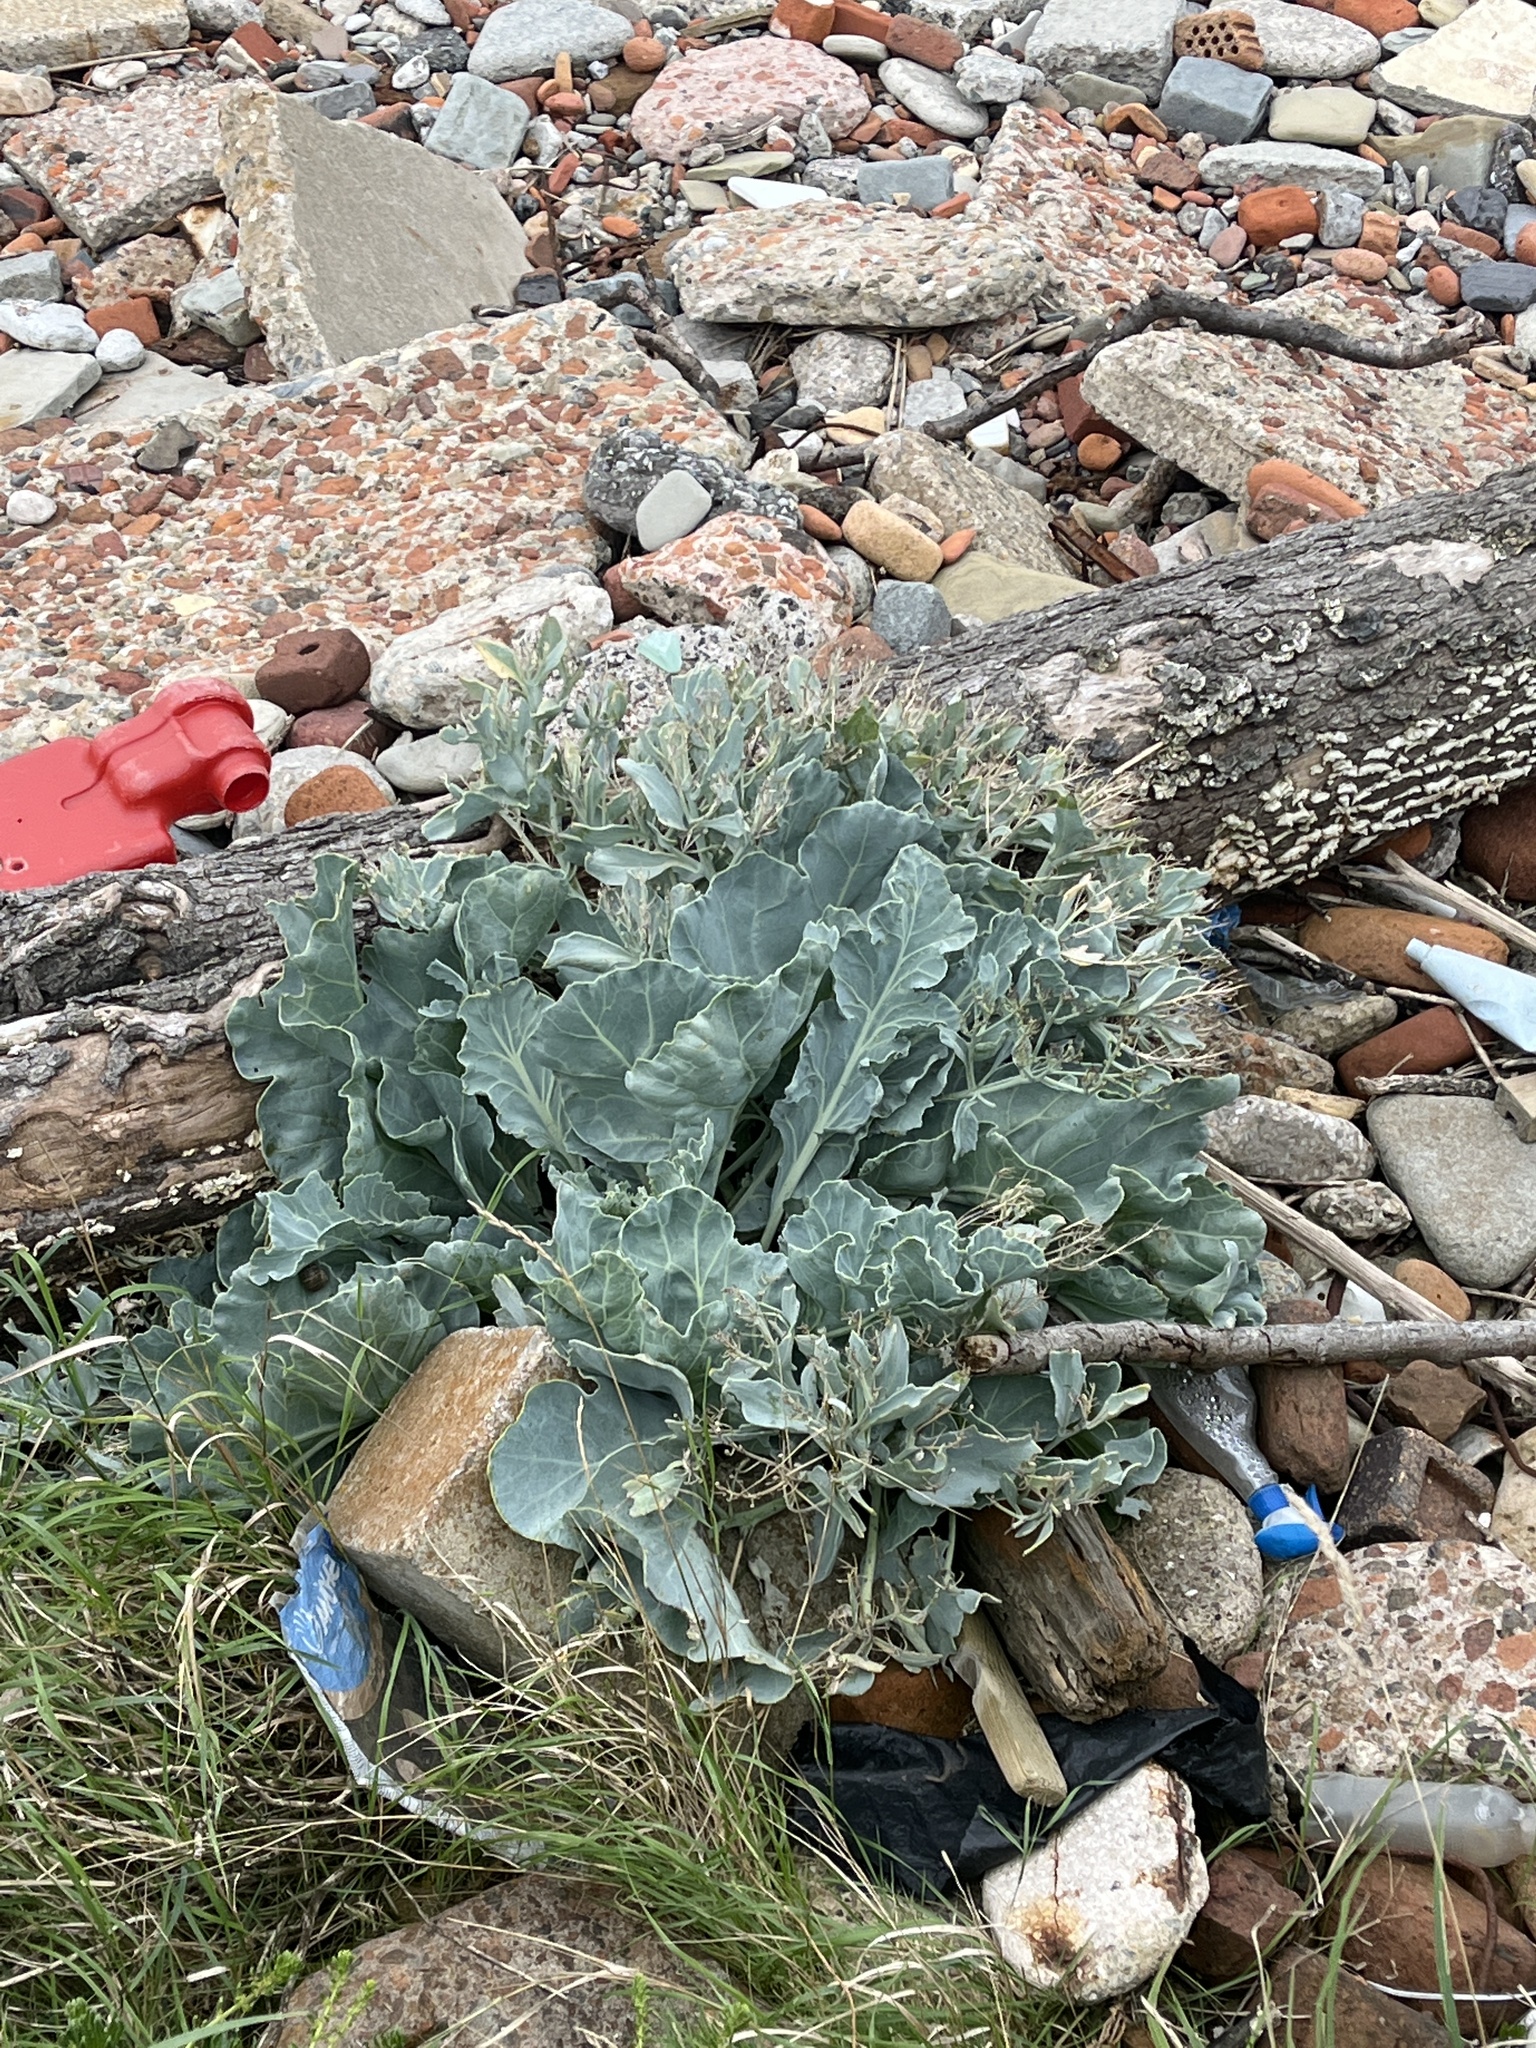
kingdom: Plantae
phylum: Tracheophyta
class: Magnoliopsida
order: Brassicales
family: Brassicaceae
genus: Crambe
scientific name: Crambe maritima
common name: Sea-kale
